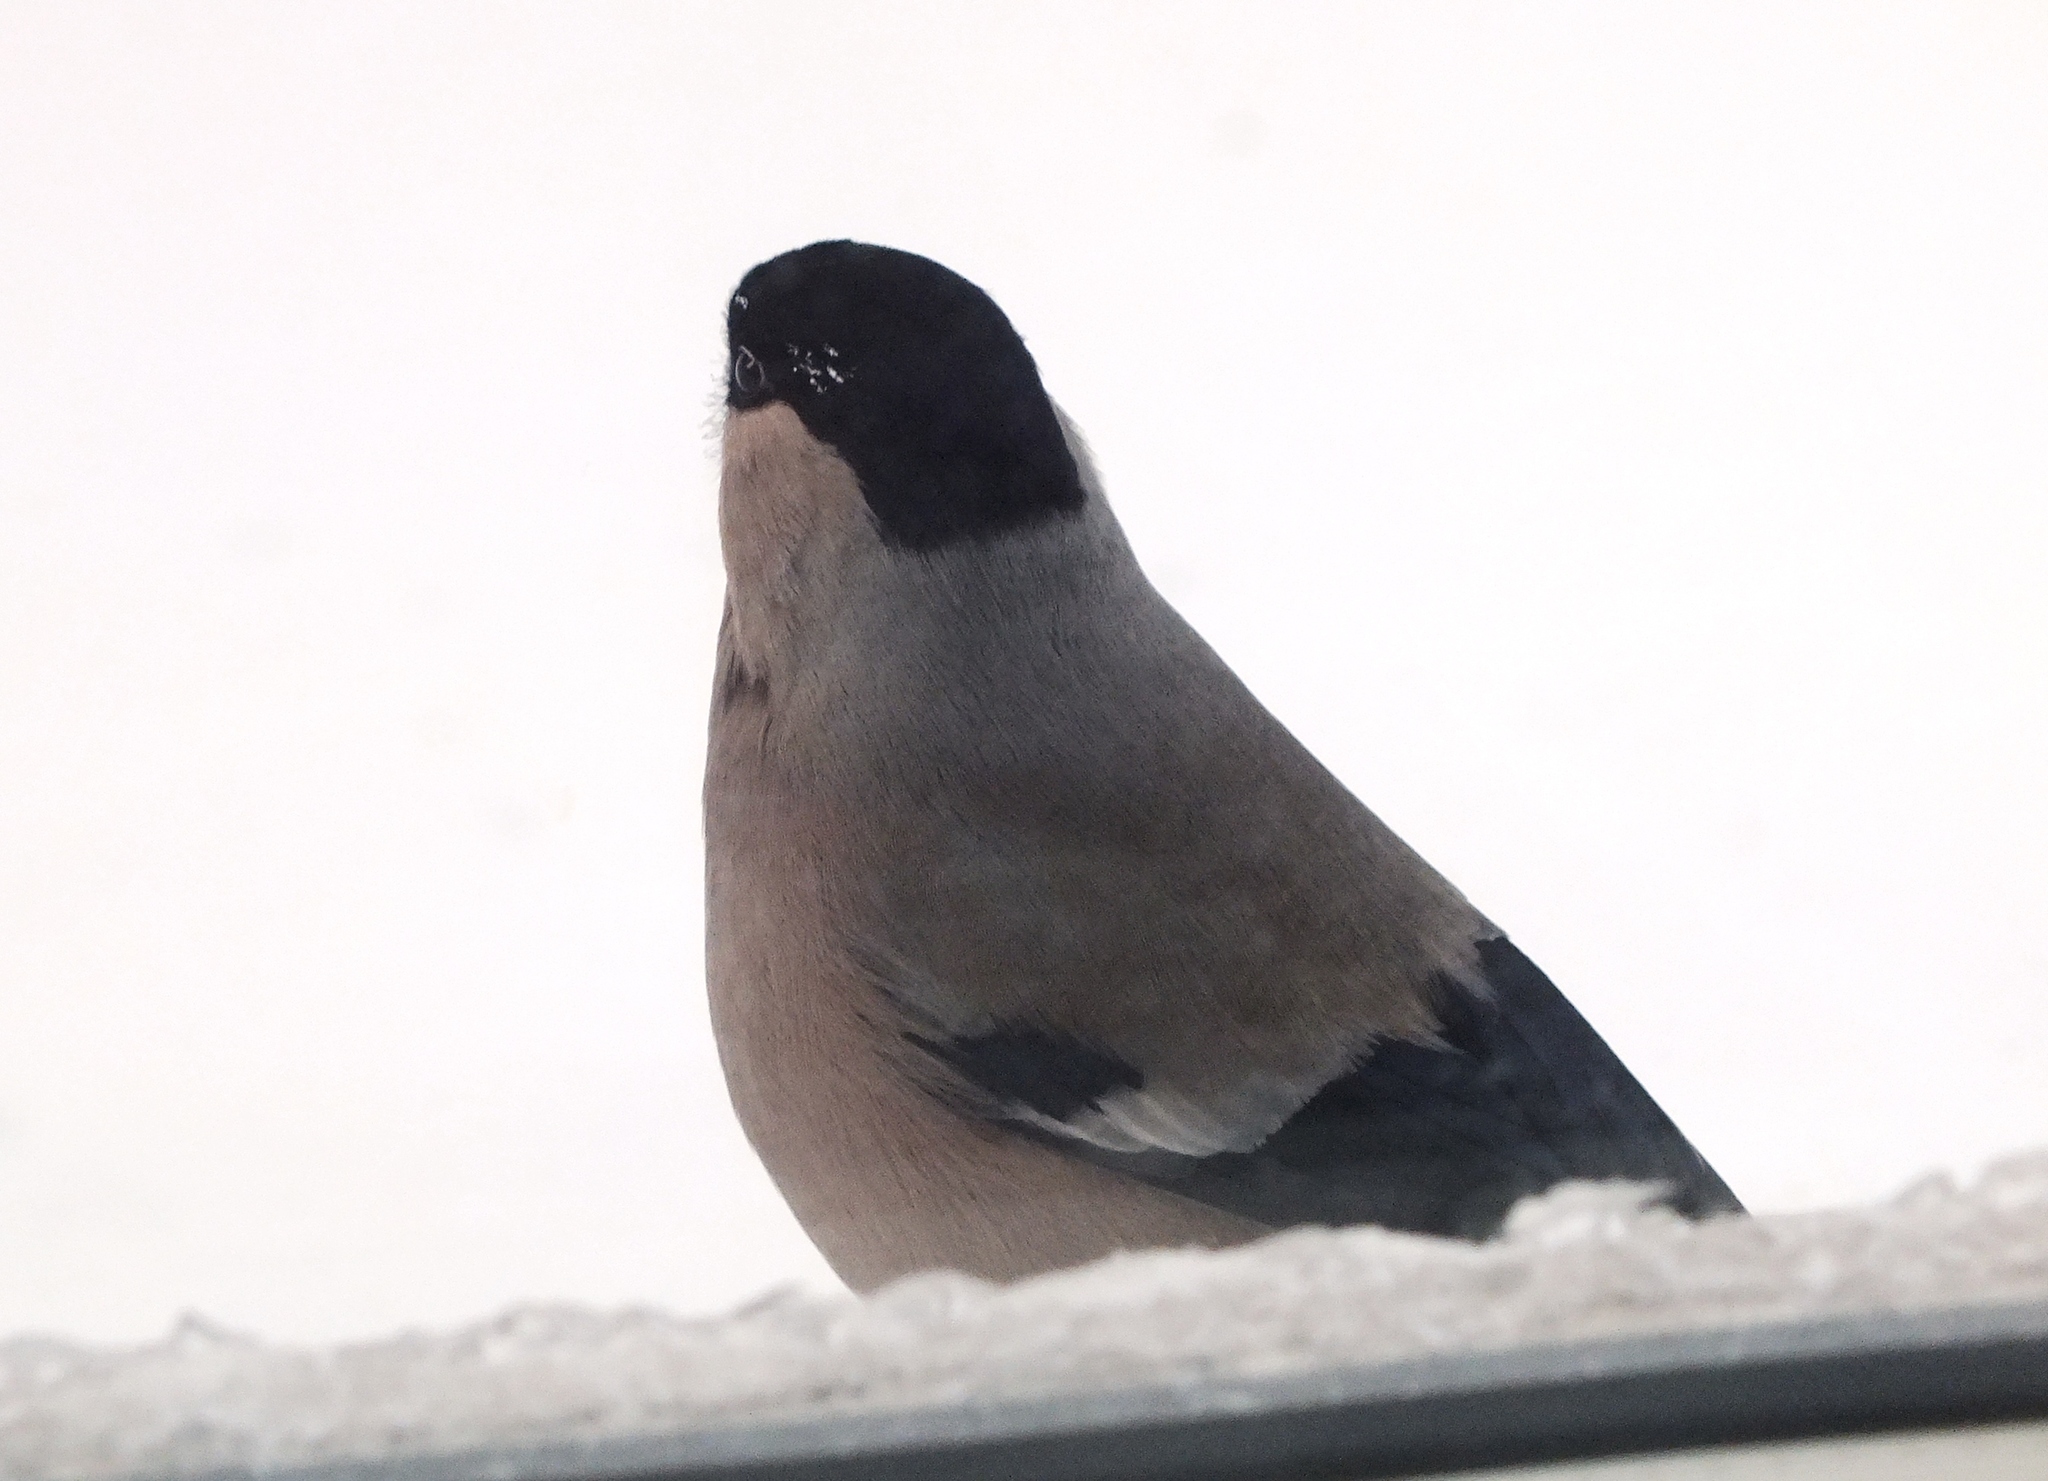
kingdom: Animalia
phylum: Chordata
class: Aves
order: Passeriformes
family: Fringillidae
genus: Pyrrhula
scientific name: Pyrrhula pyrrhula
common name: Eurasian bullfinch
